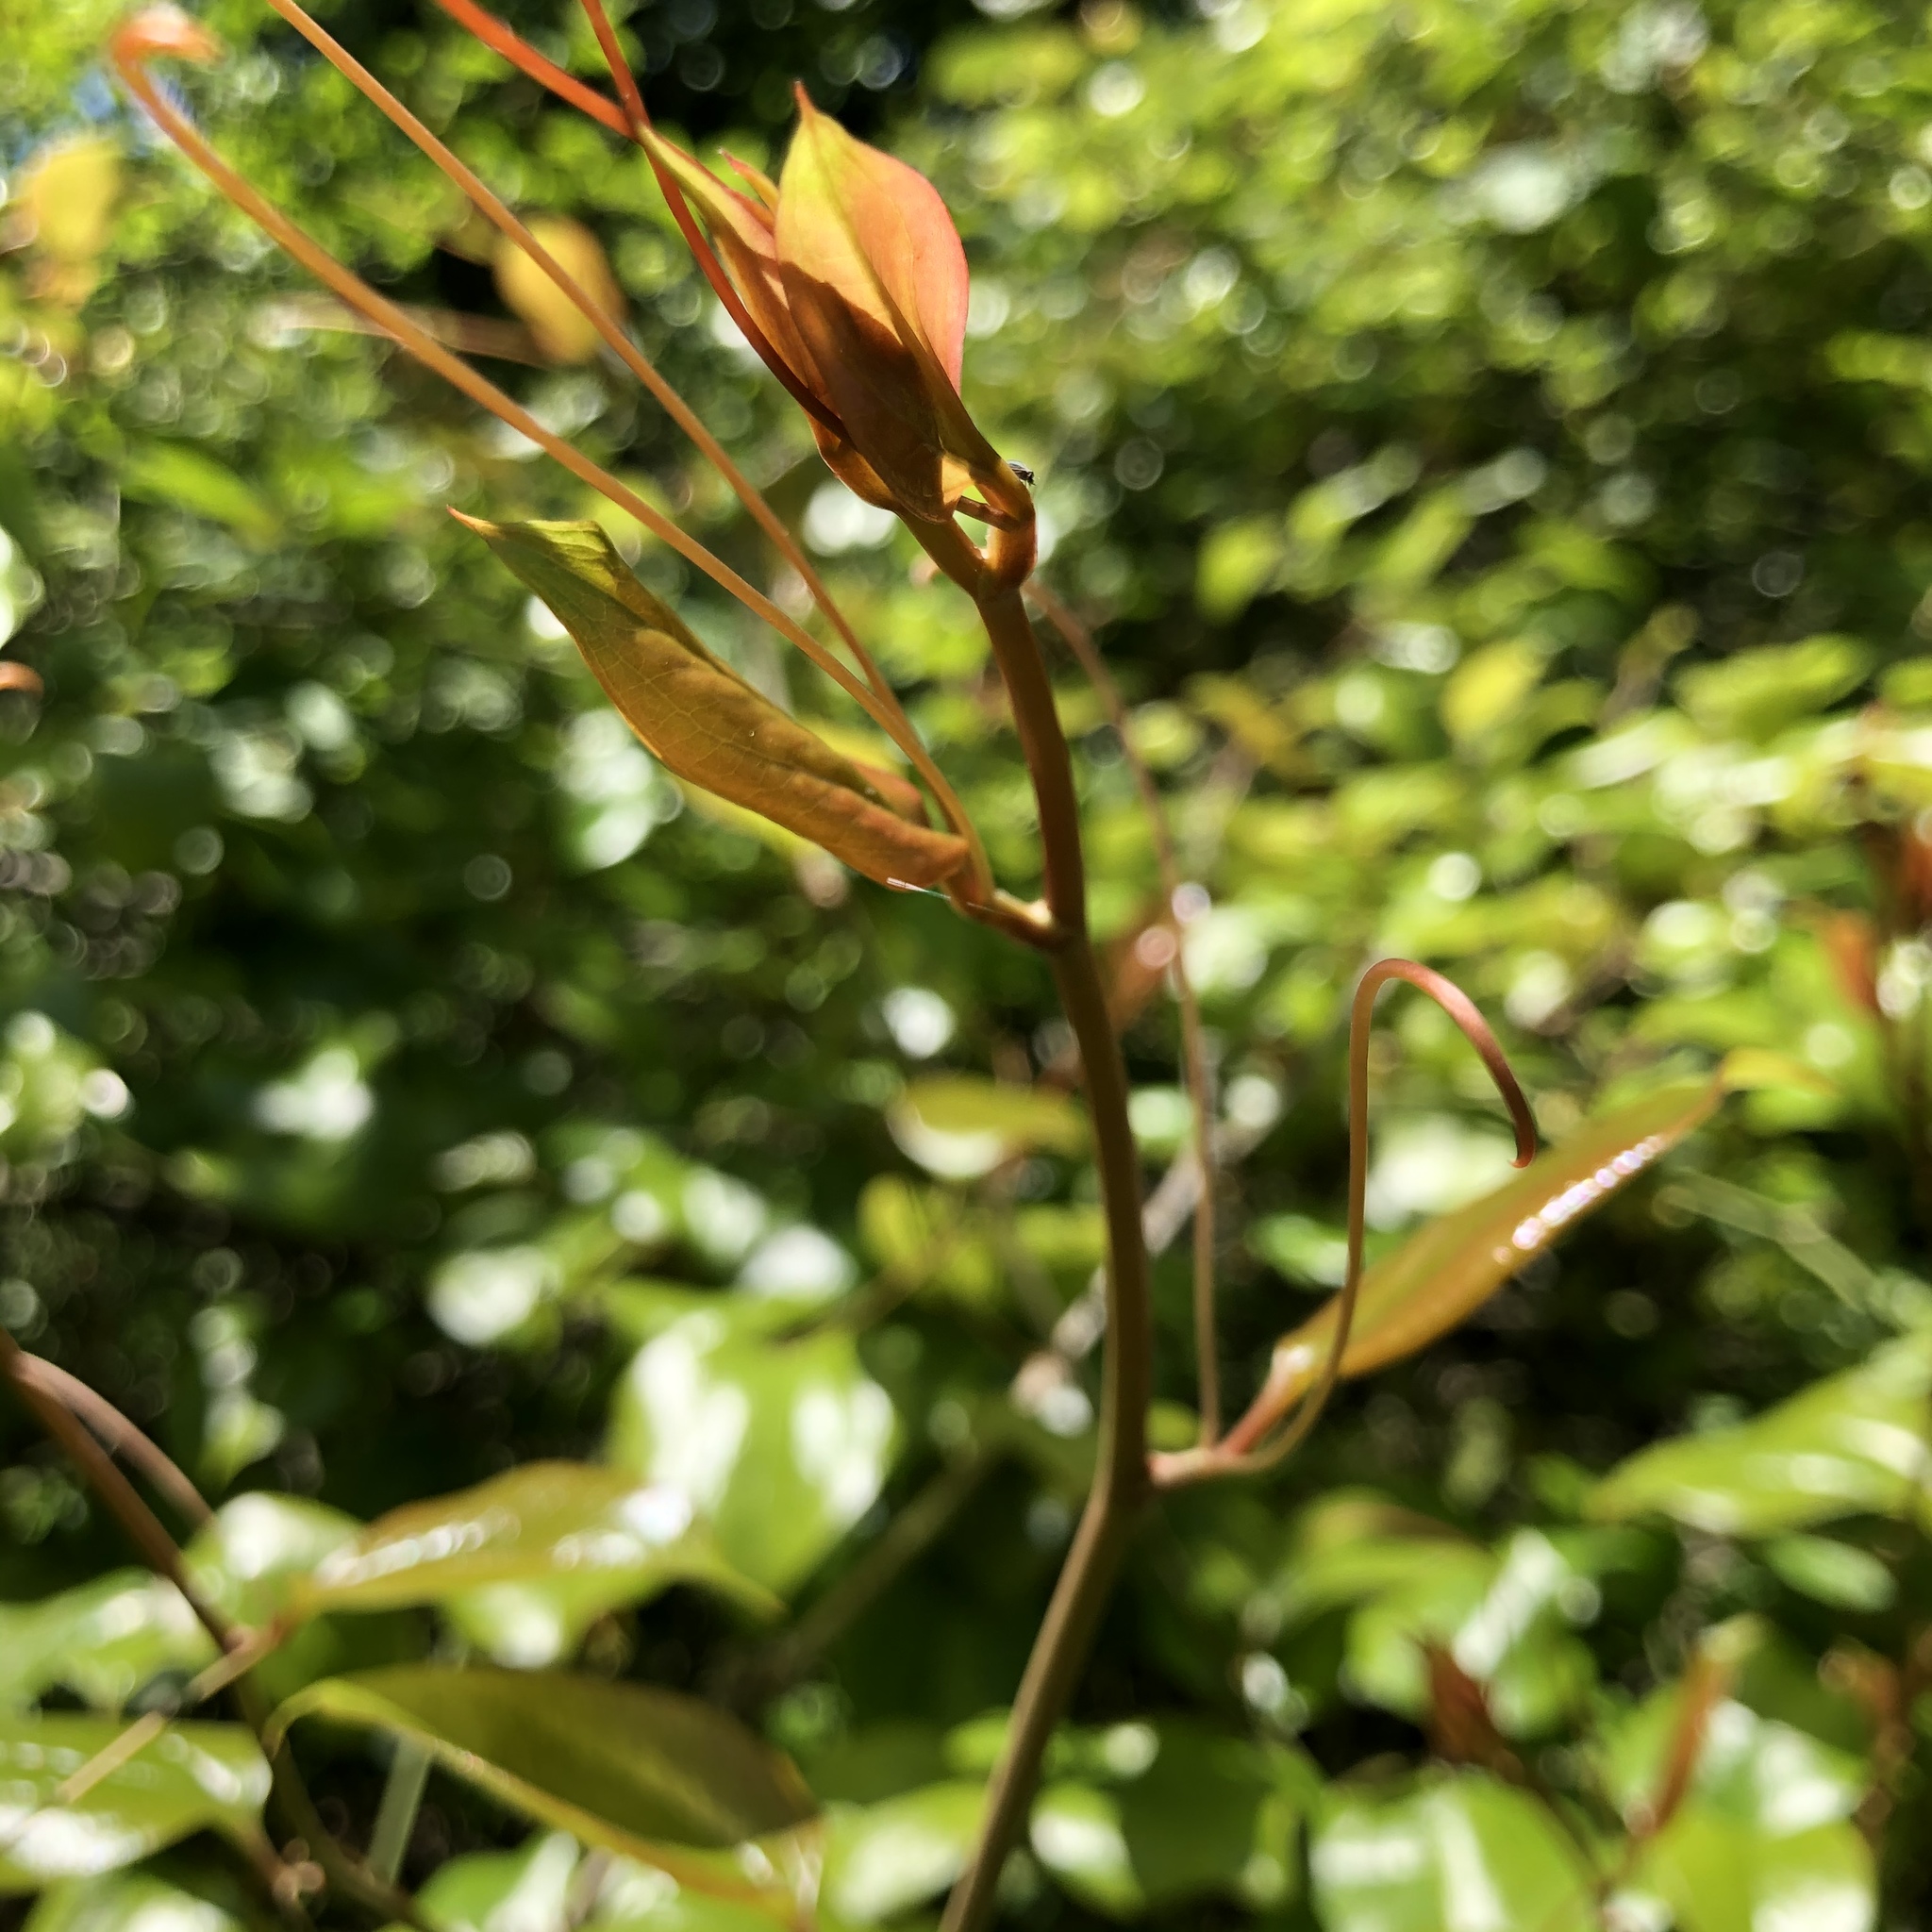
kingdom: Plantae
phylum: Tracheophyta
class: Liliopsida
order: Liliales
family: Smilacaceae
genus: Smilax
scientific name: Smilax rotundifolia
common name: Bullbriar
